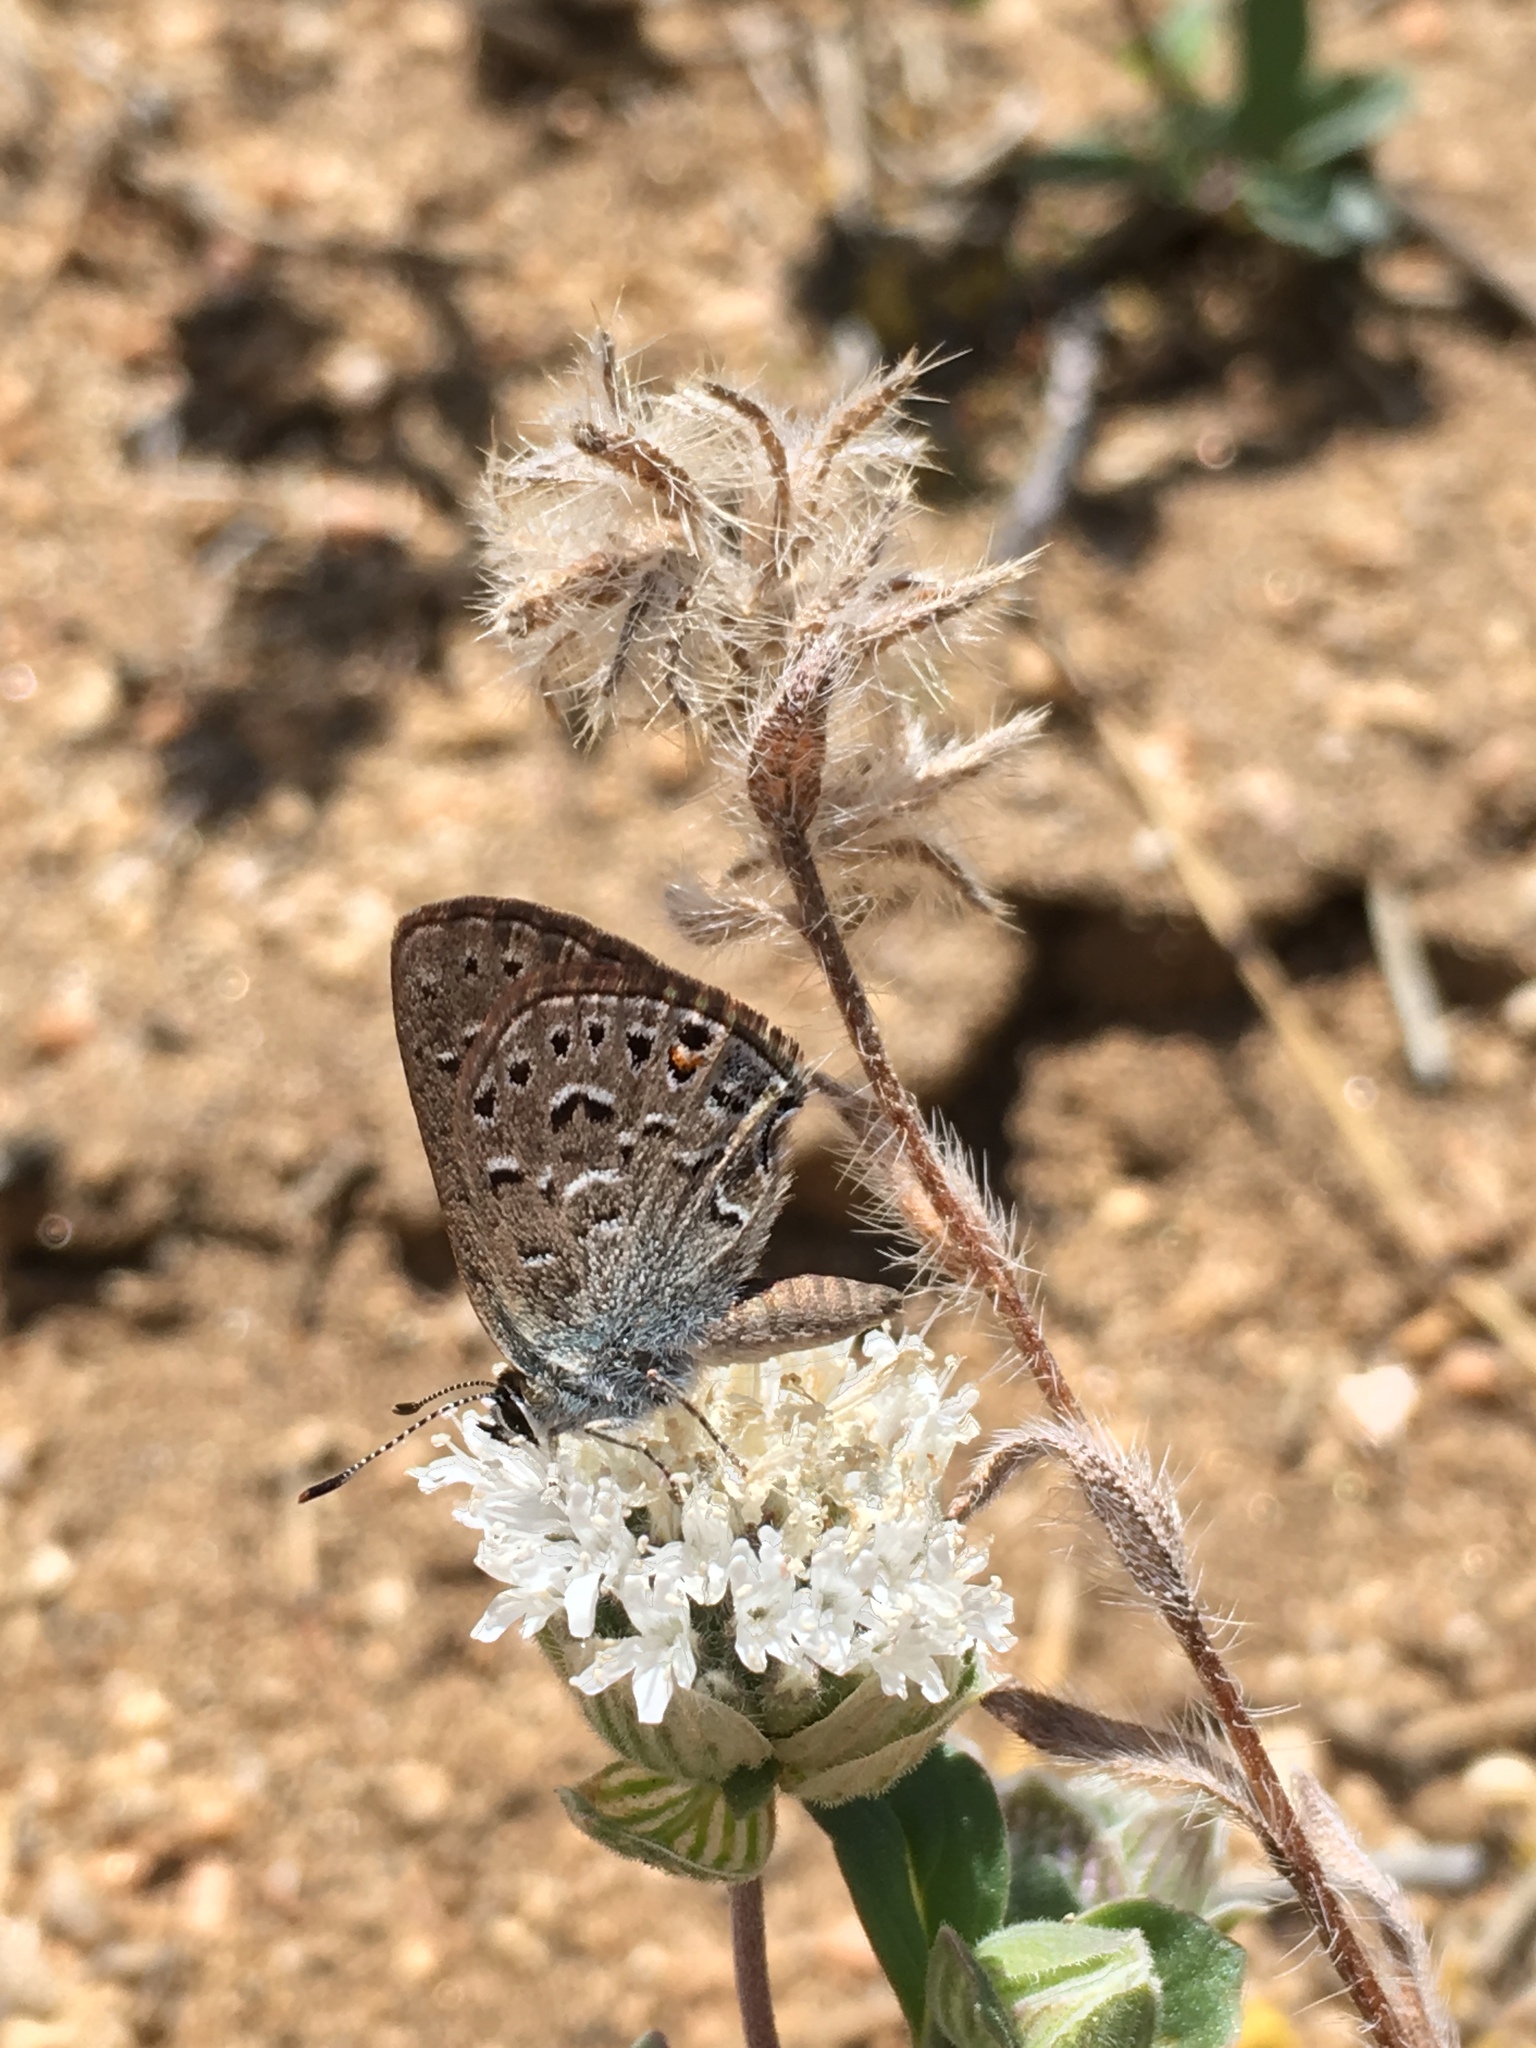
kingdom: Animalia
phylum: Arthropoda
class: Insecta
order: Lepidoptera
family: Lycaenidae
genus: Satyrium
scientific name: Satyrium behrii
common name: Behr's hairstreak
